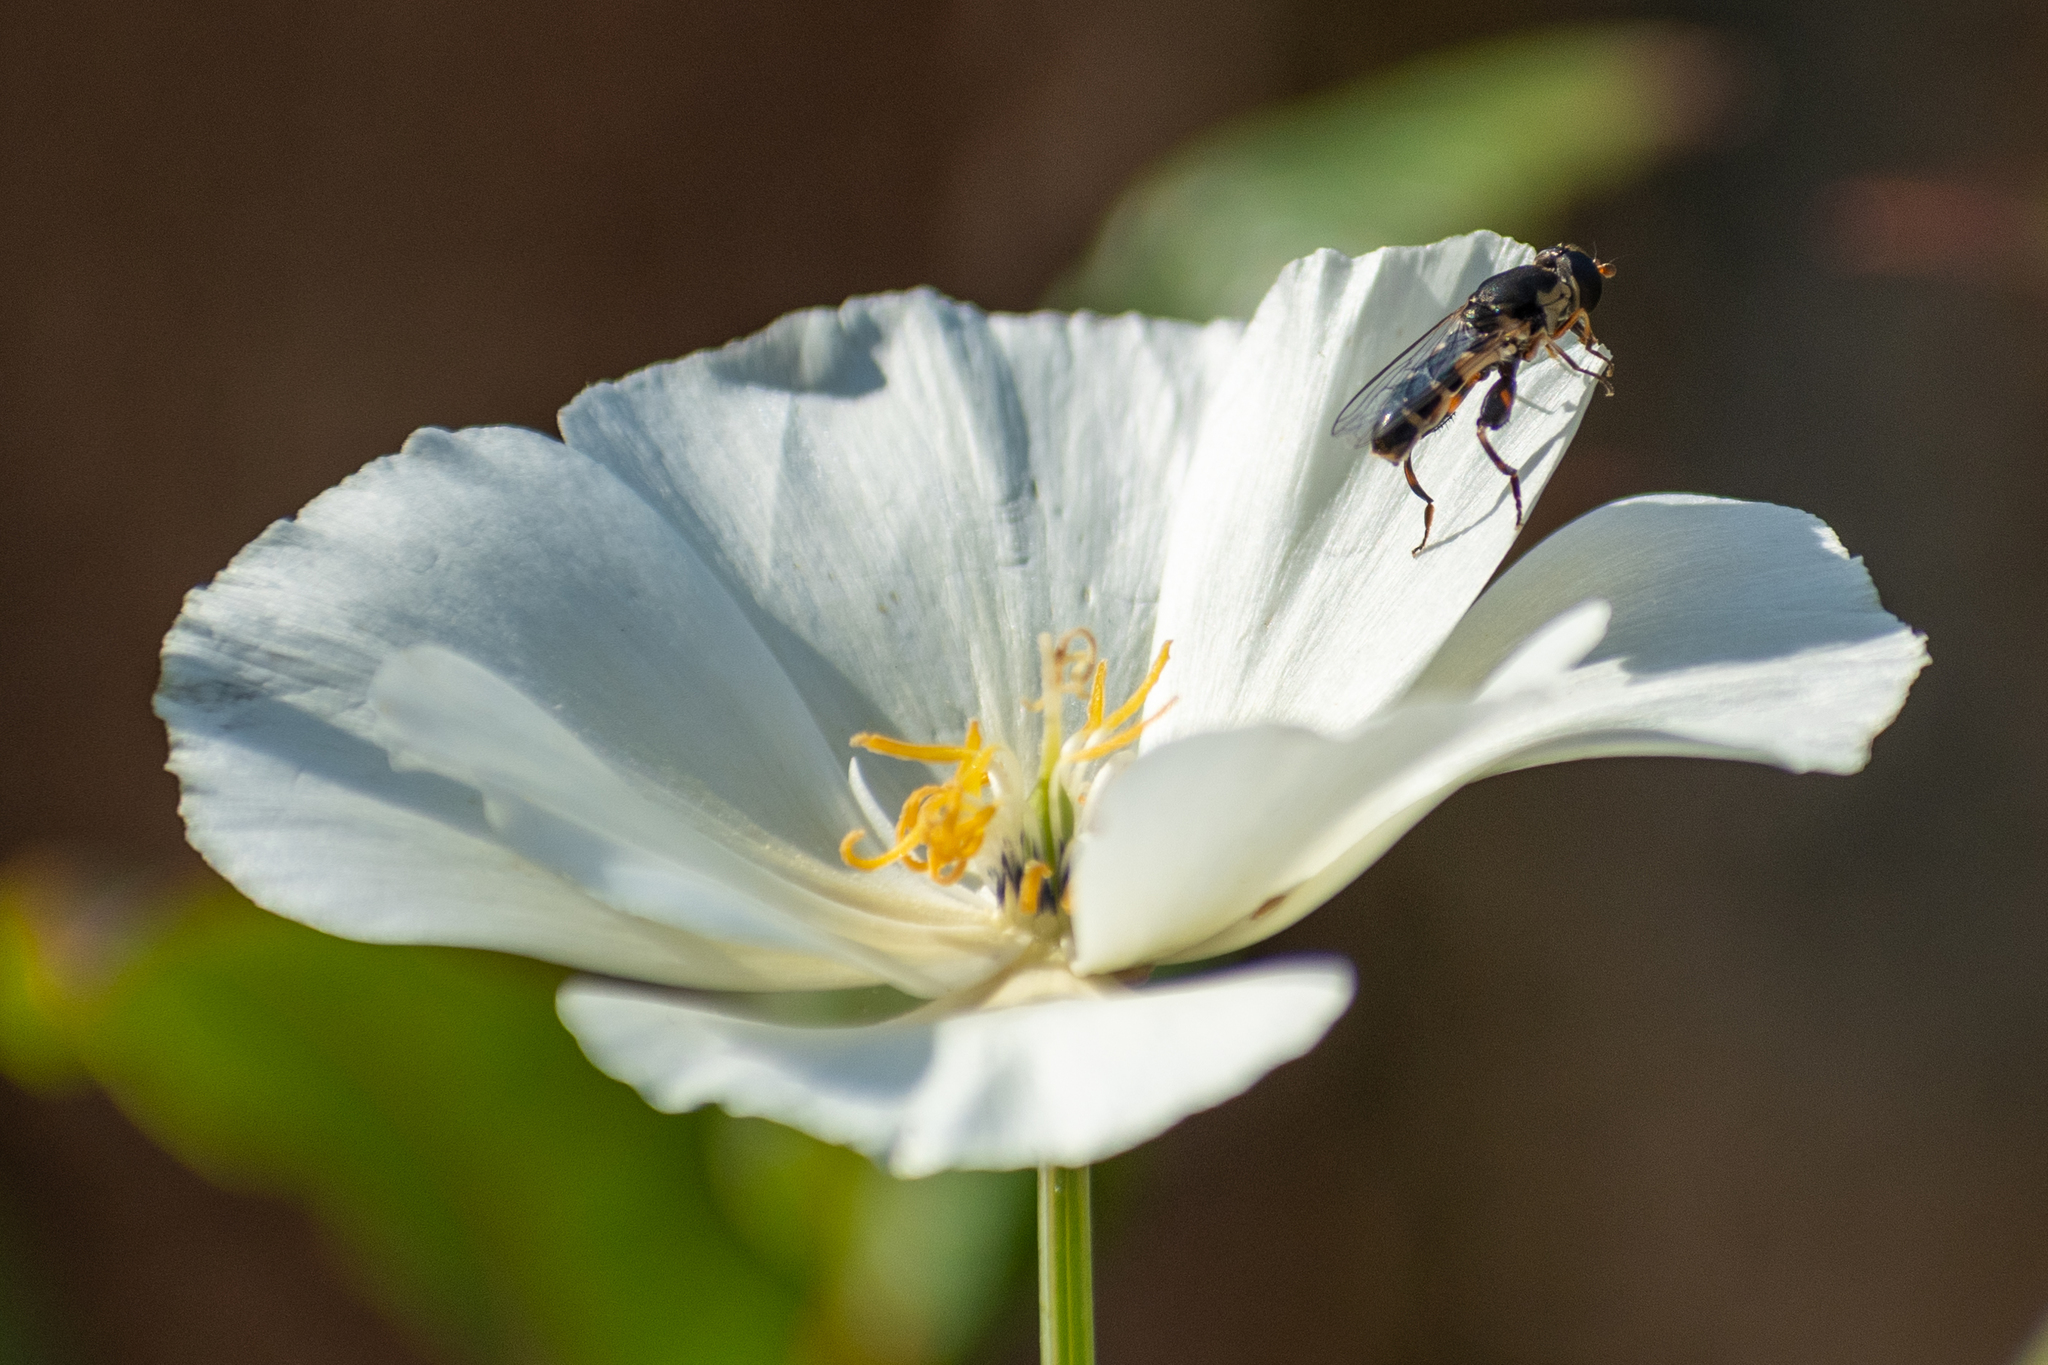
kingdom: Animalia
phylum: Arthropoda
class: Insecta
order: Diptera
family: Syrphidae
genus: Syritta
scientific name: Syritta pipiens
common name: Hover fly
